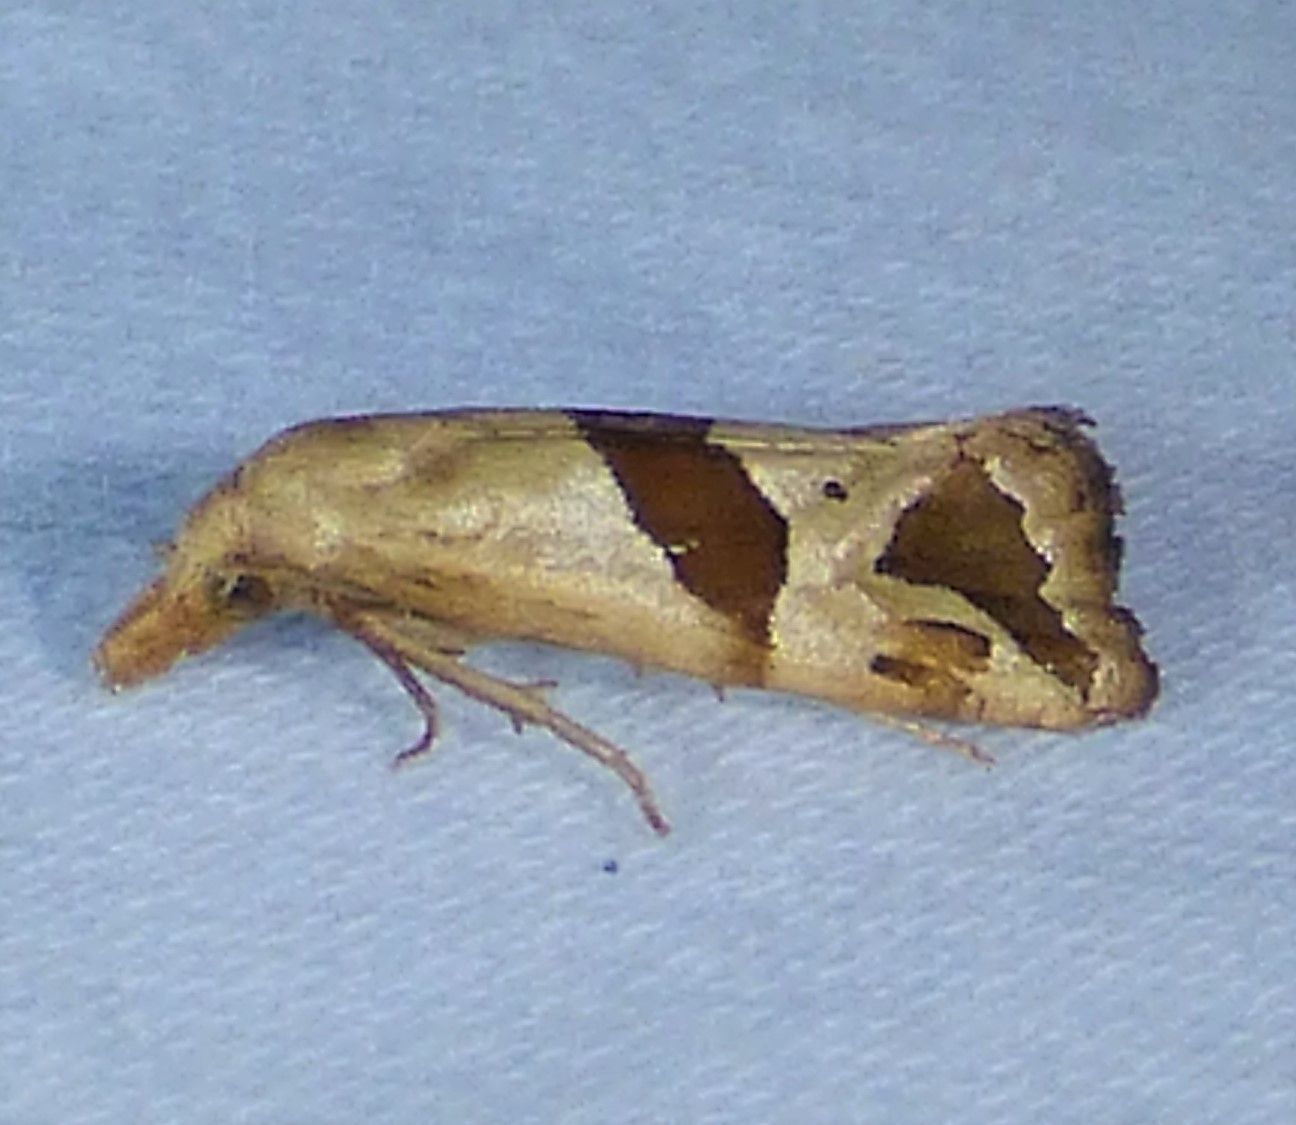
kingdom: Animalia
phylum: Arthropoda
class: Insecta
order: Lepidoptera
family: Tortricidae
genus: Eugnosta
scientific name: Eugnosta sartana
